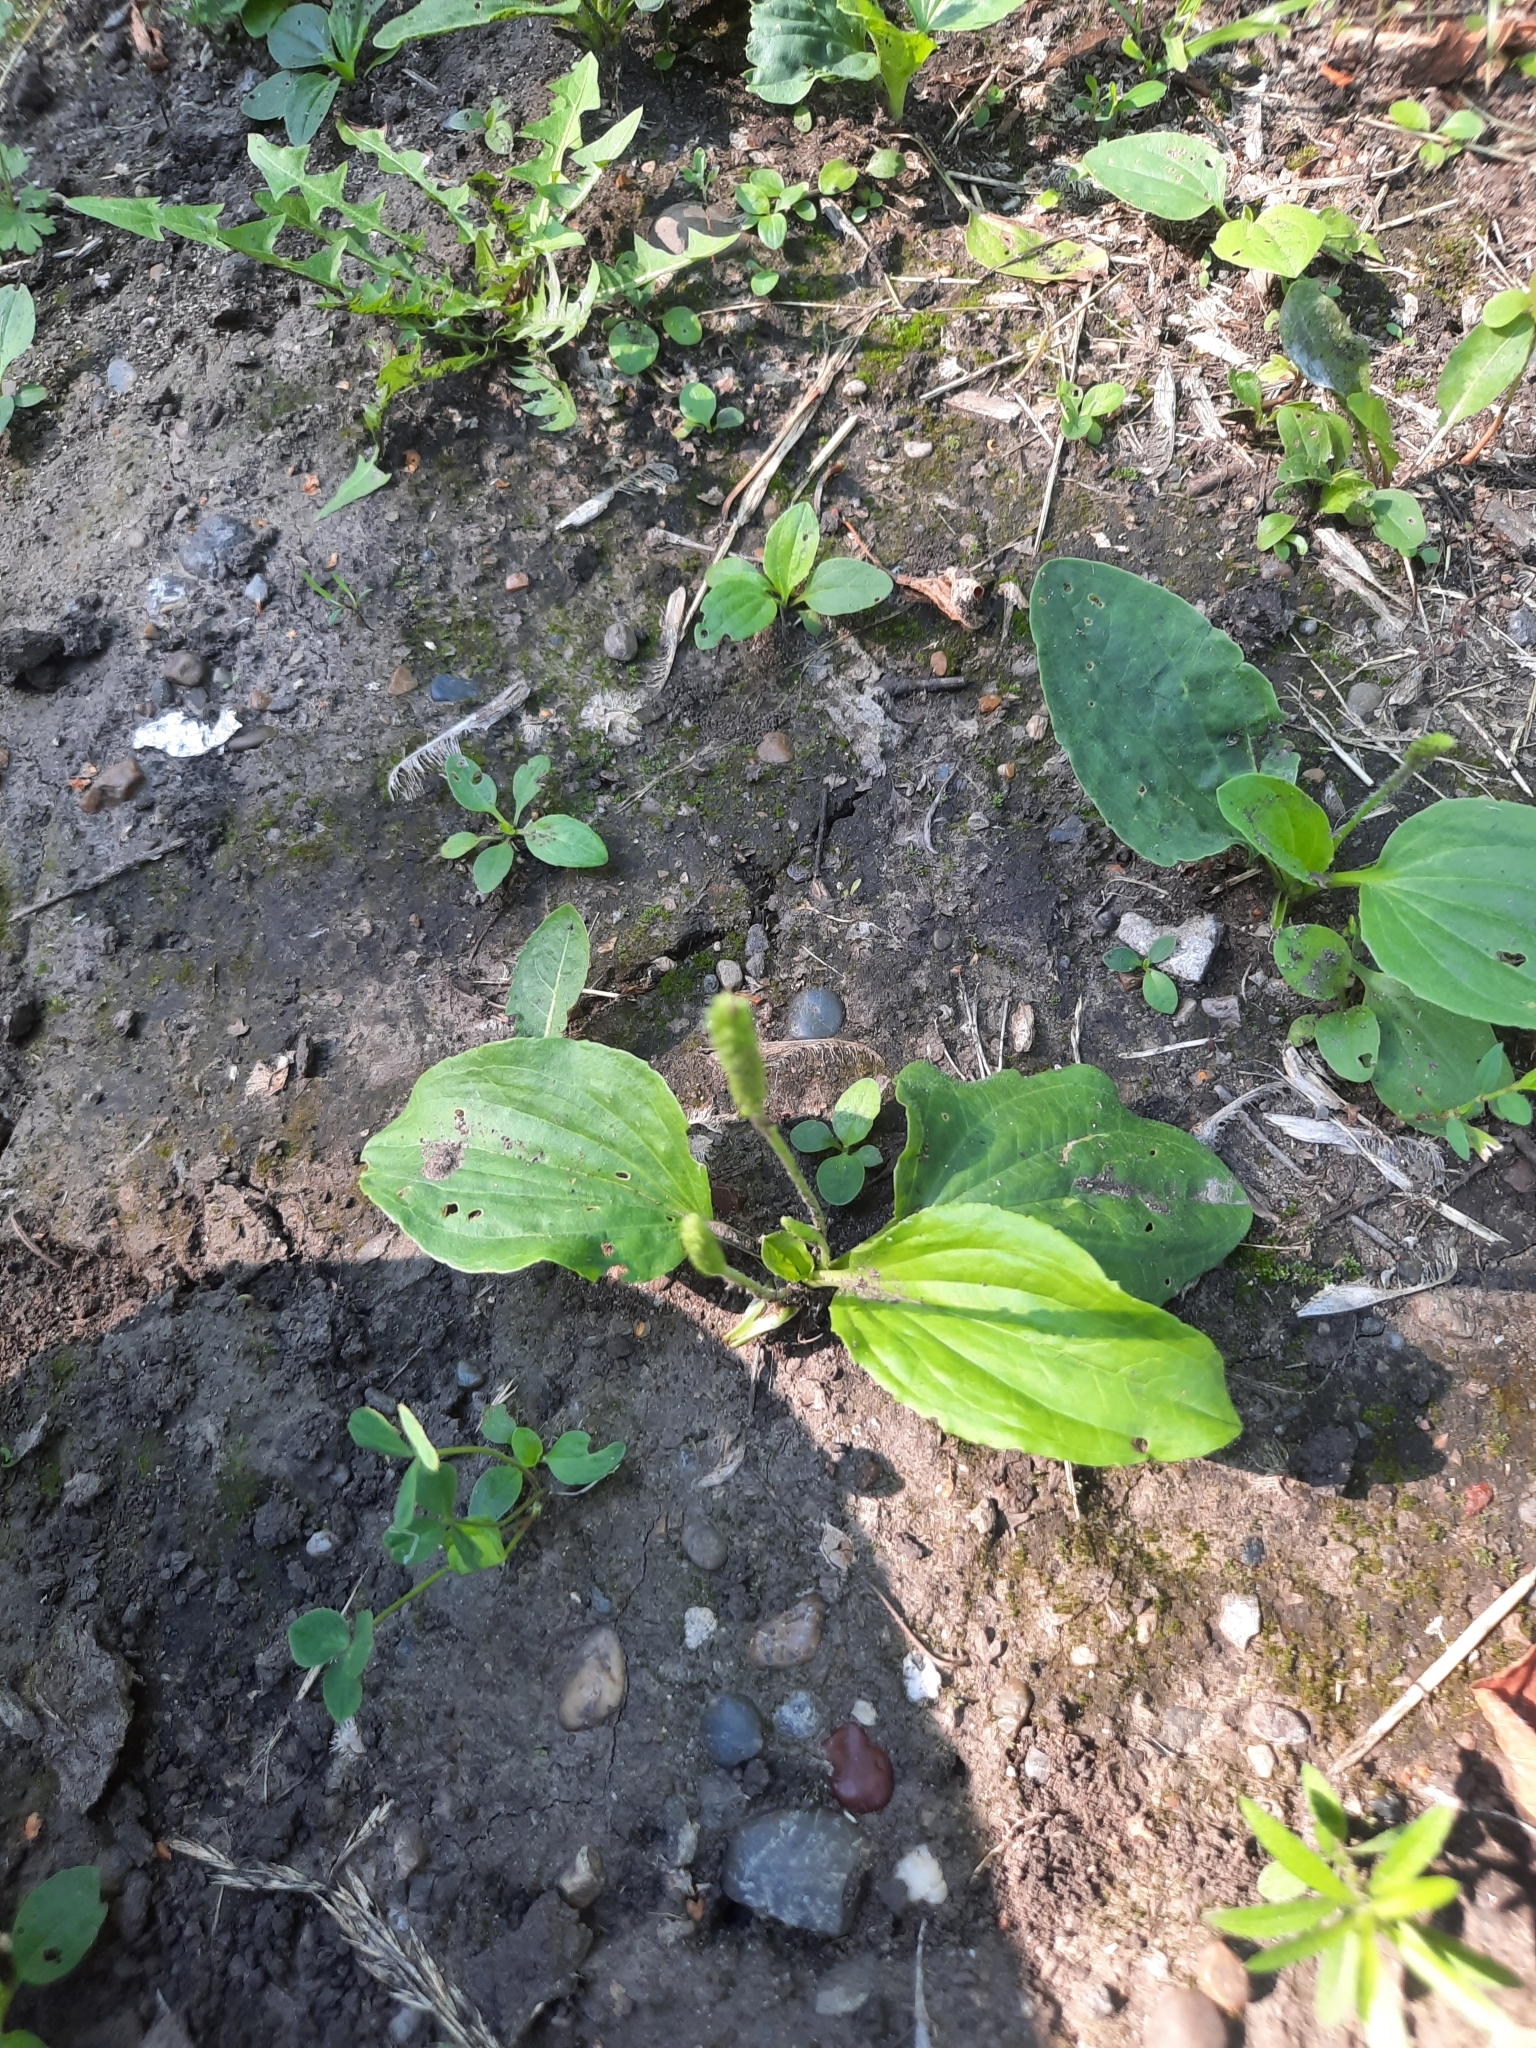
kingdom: Plantae
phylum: Tracheophyta
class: Magnoliopsida
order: Lamiales
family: Plantaginaceae
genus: Plantago
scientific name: Plantago major
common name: Common plantain
